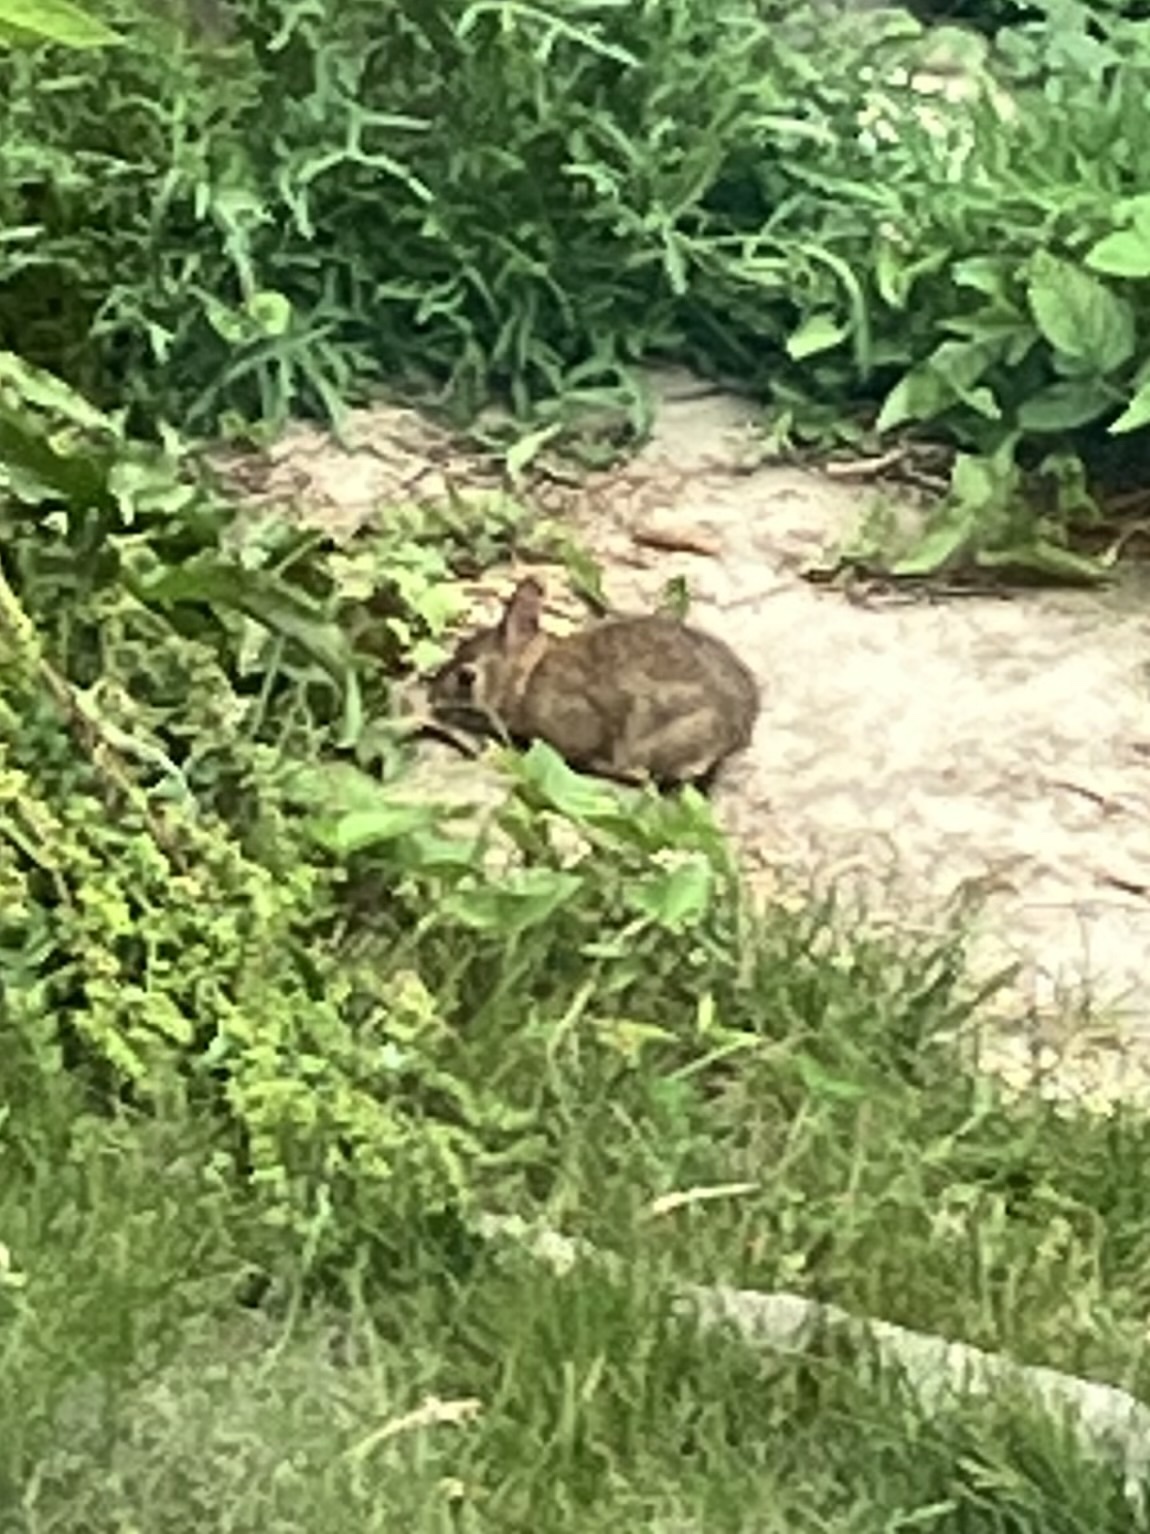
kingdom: Animalia
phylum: Chordata
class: Mammalia
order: Lagomorpha
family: Leporidae
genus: Sylvilagus
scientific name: Sylvilagus floridanus
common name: Eastern cottontail
